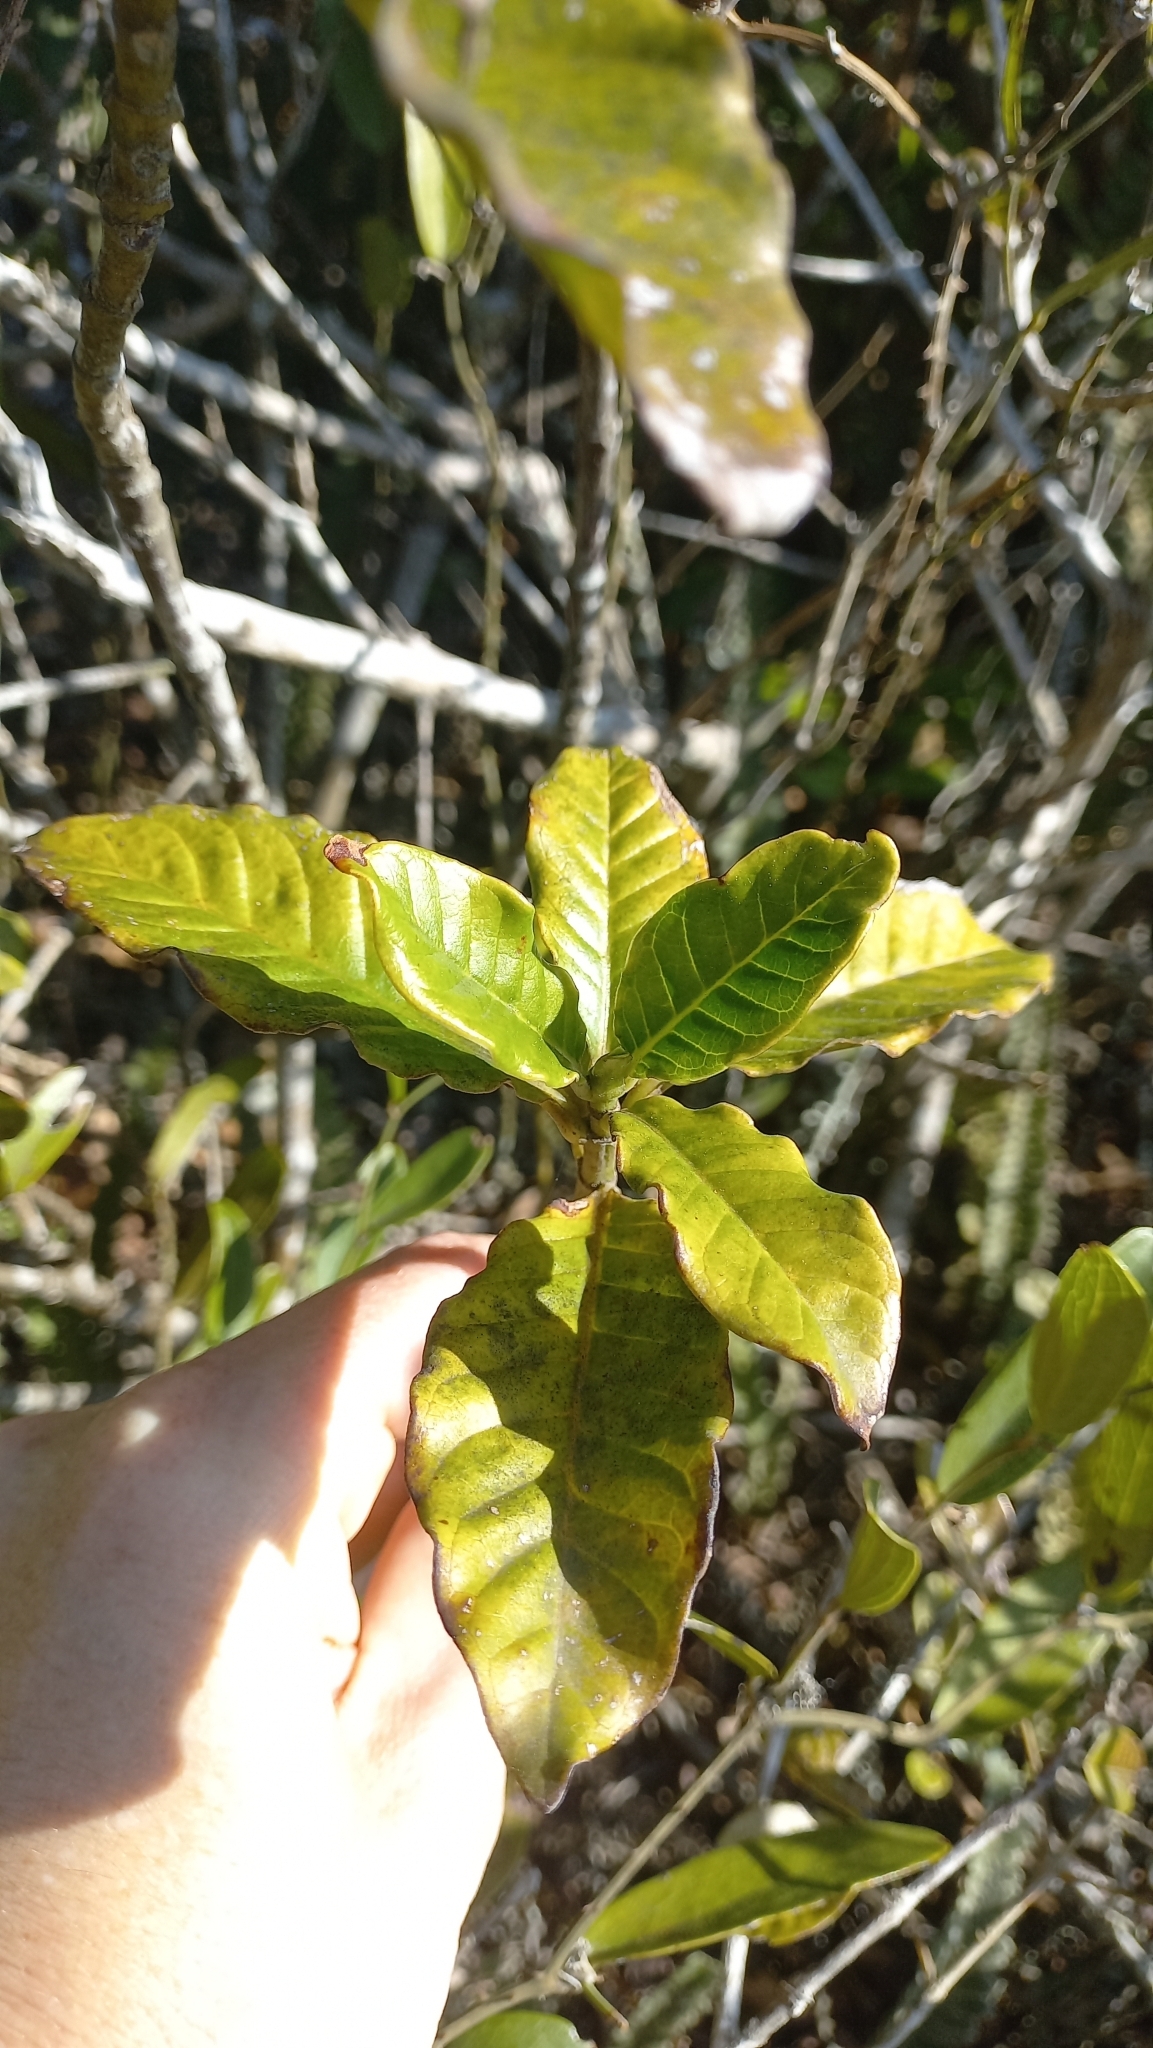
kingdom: Plantae
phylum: Tracheophyta
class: Magnoliopsida
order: Gentianales
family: Rubiaceae
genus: Psychotria
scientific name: Psychotria carthagenensis
